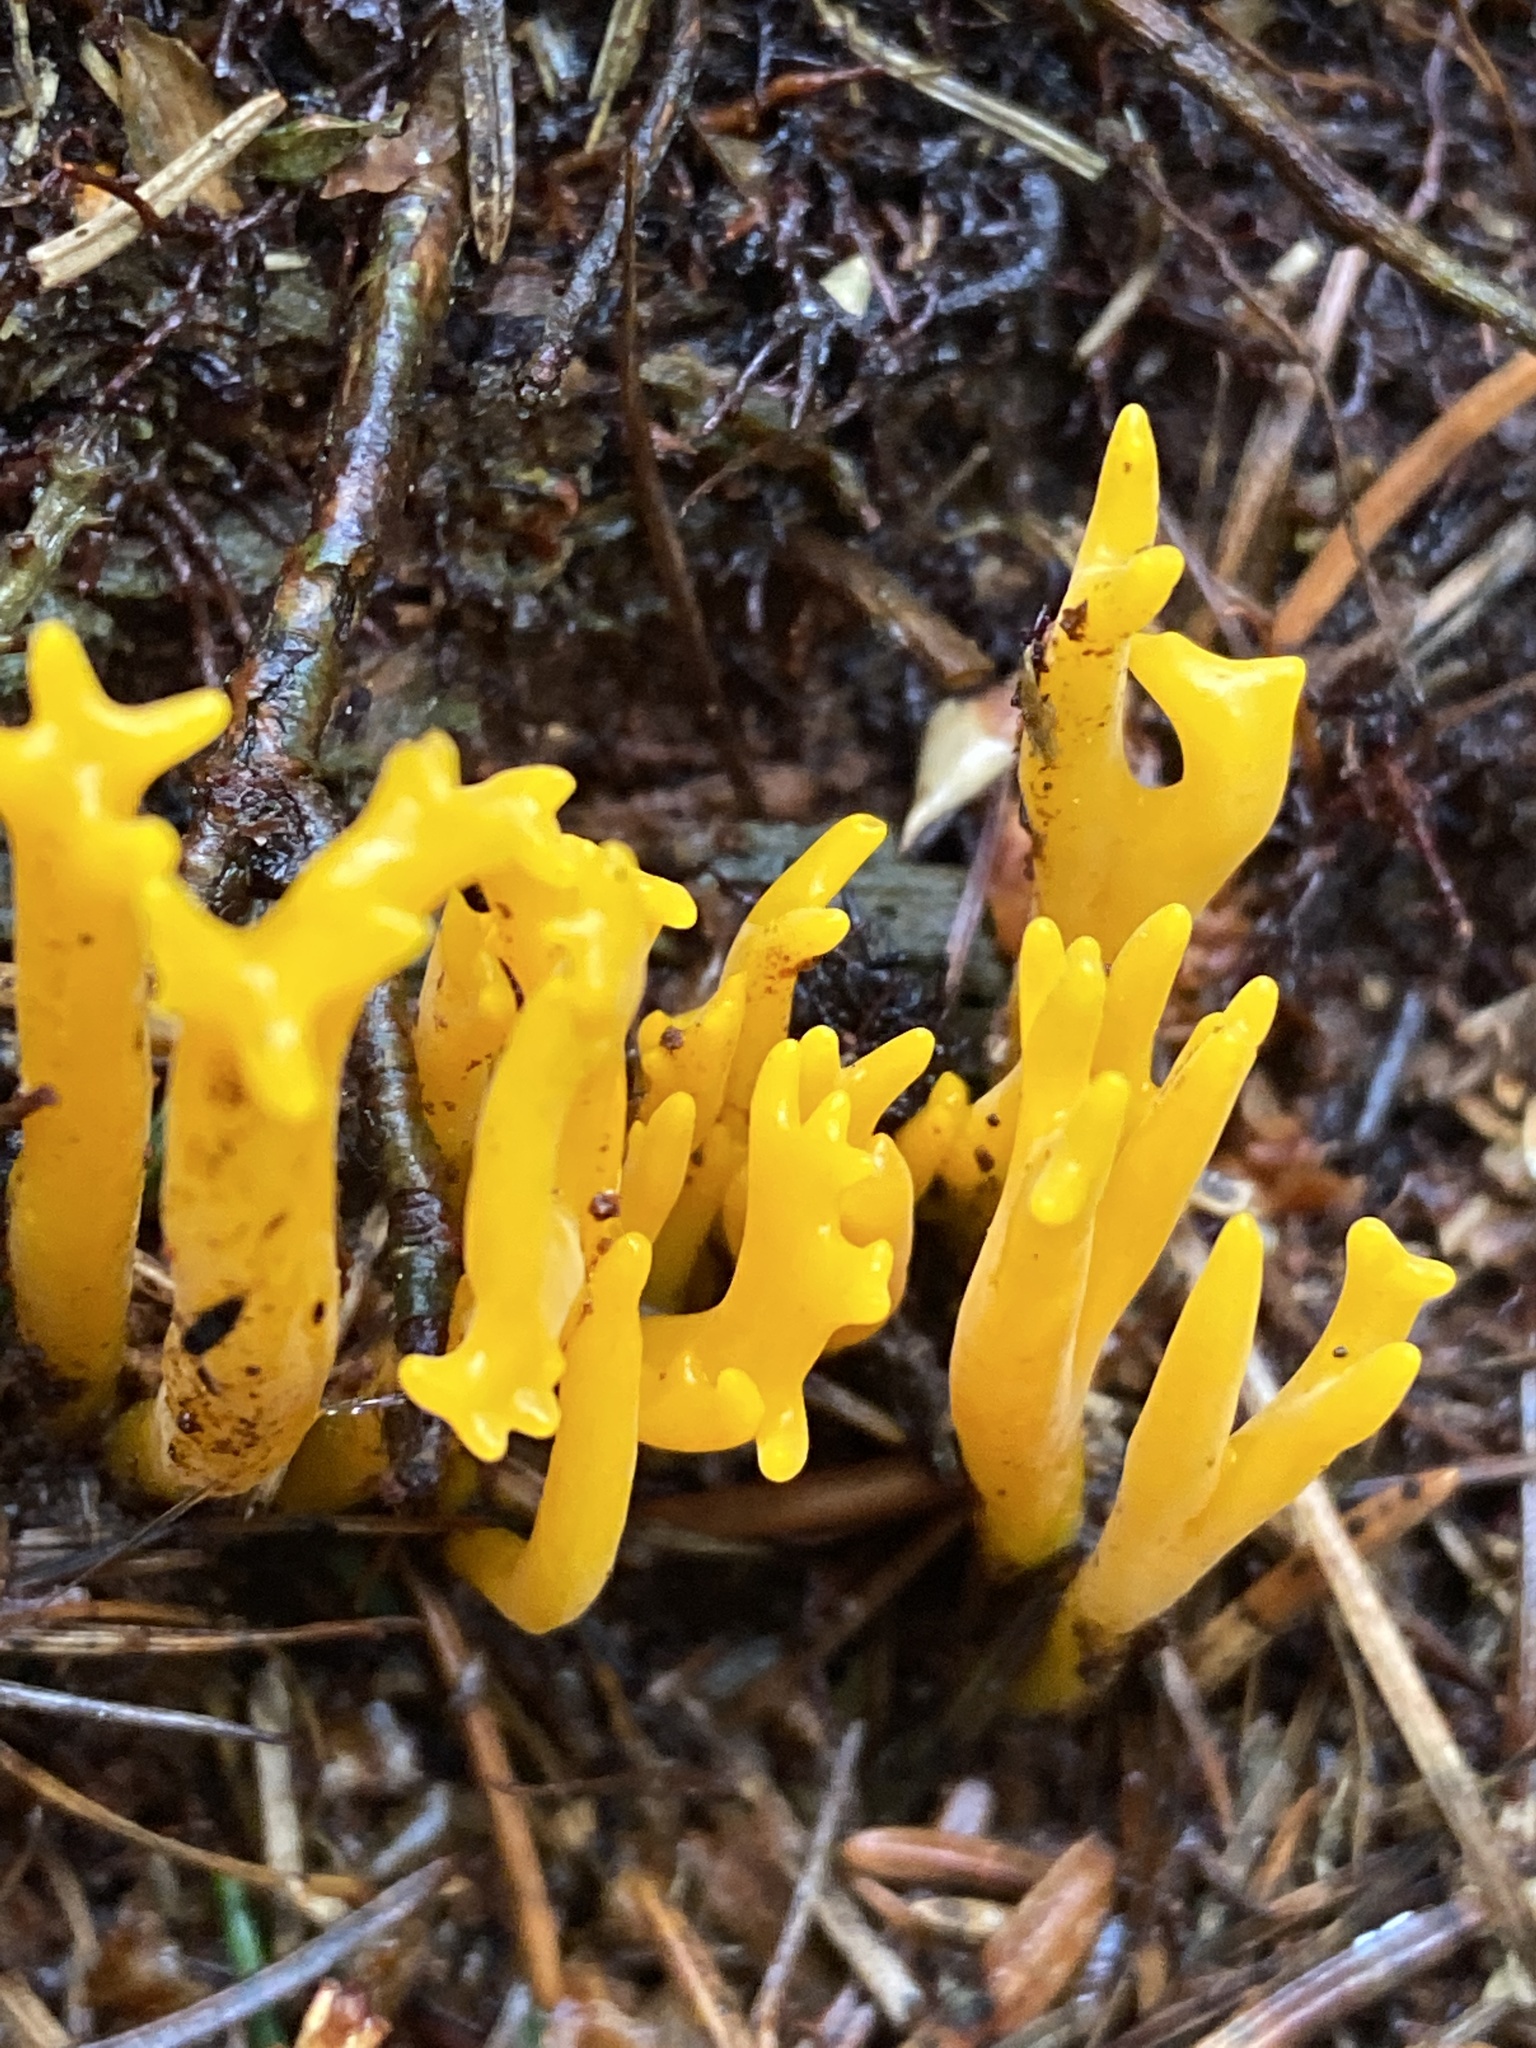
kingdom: Fungi
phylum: Basidiomycota
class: Dacrymycetes
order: Dacrymycetales
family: Dacrymycetaceae
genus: Calocera
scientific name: Calocera viscosa
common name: Yellow stagshorn
